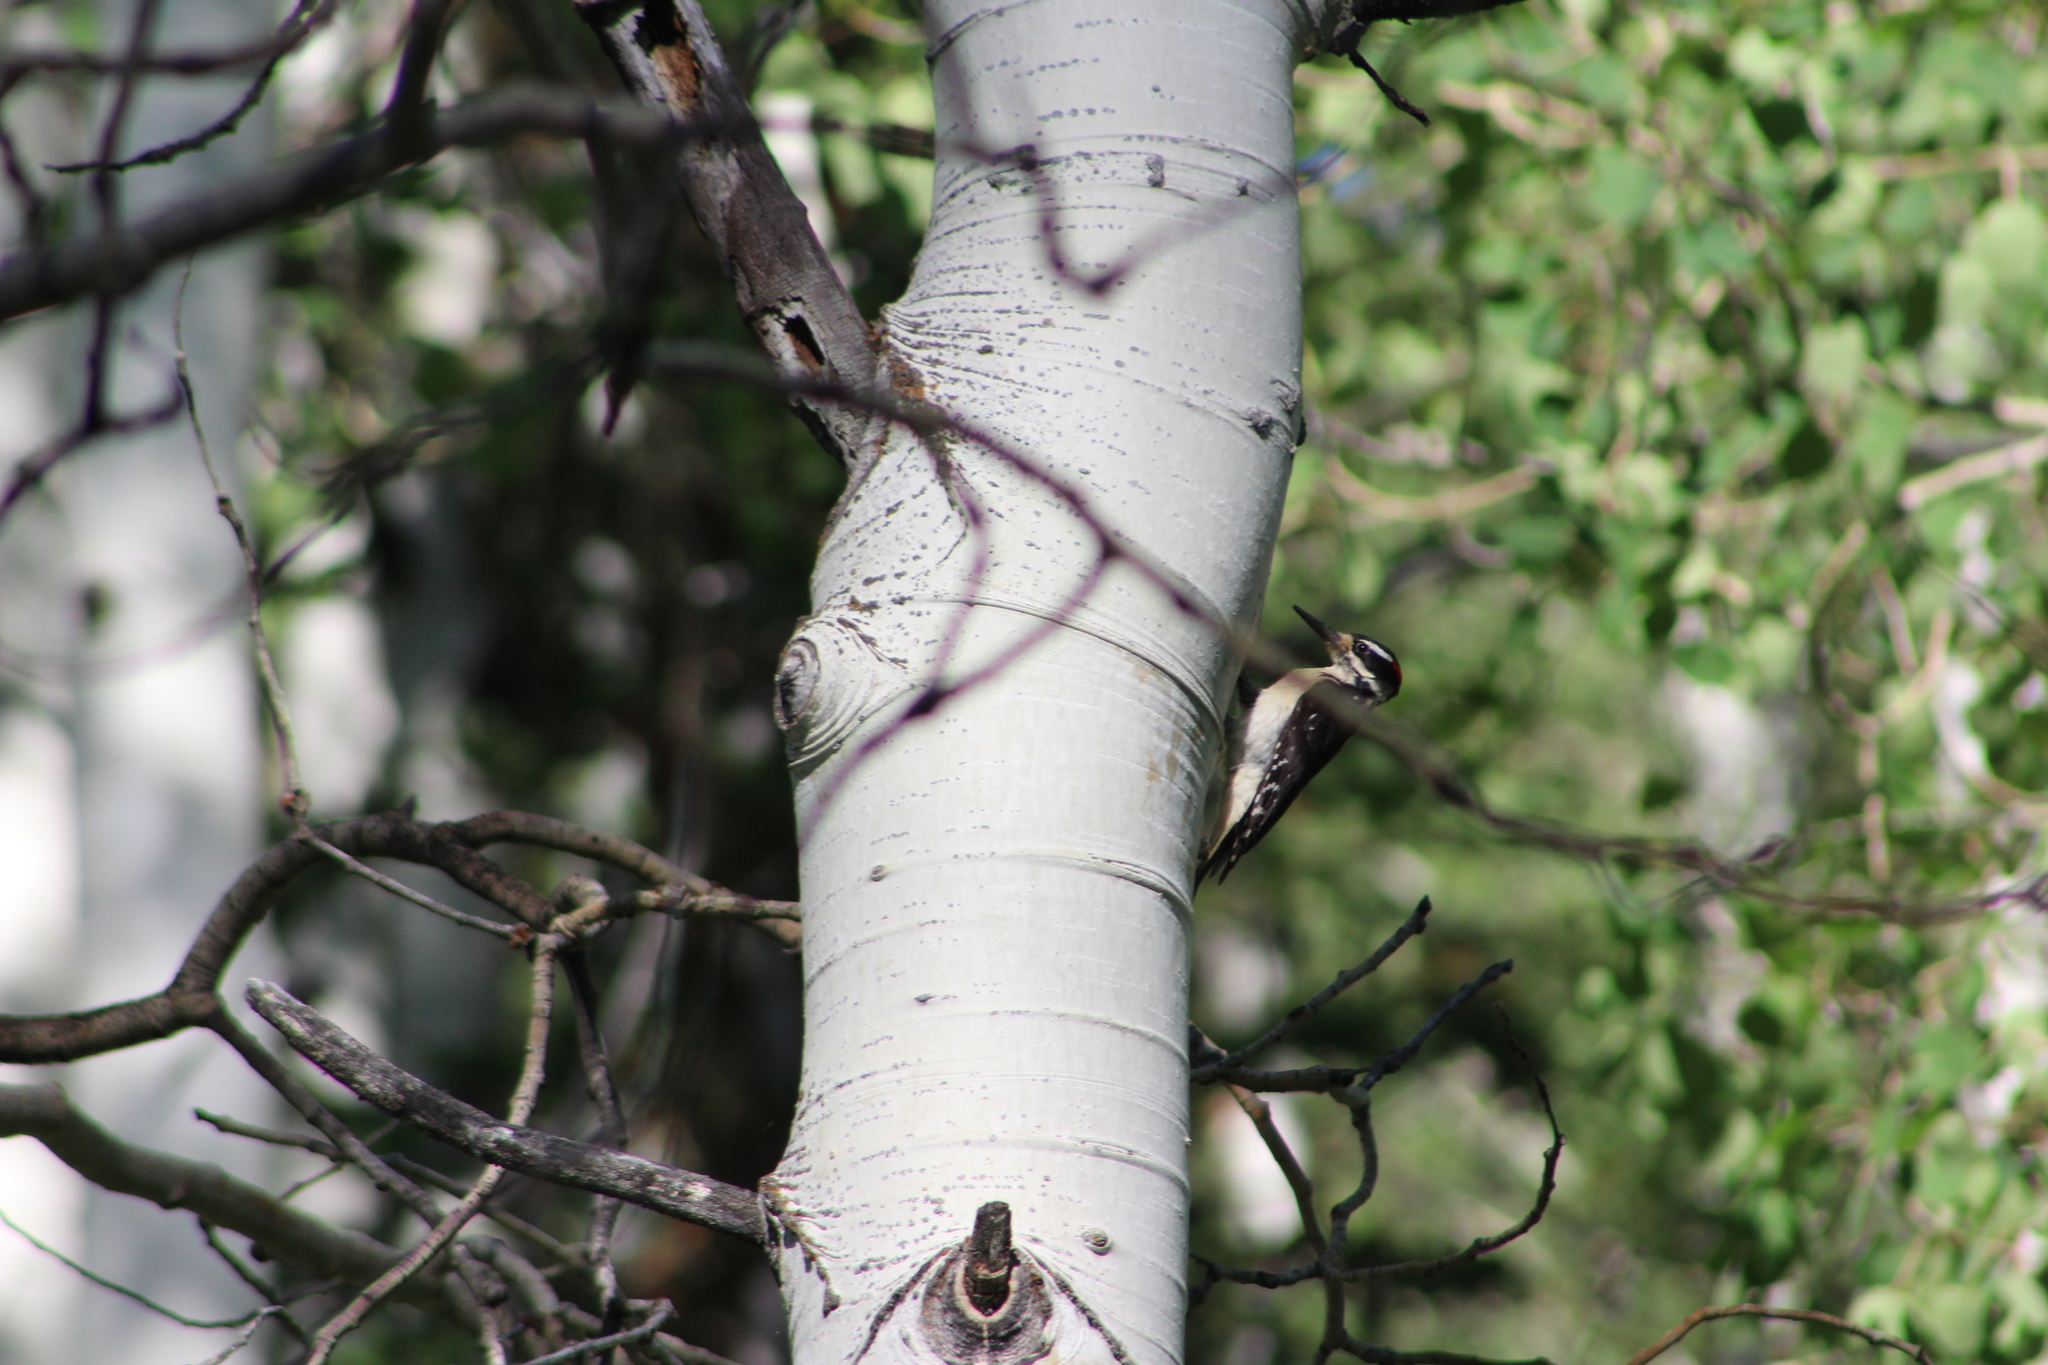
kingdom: Animalia
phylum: Chordata
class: Aves
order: Piciformes
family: Picidae
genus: Leuconotopicus
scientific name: Leuconotopicus villosus
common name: Hairy woodpecker
